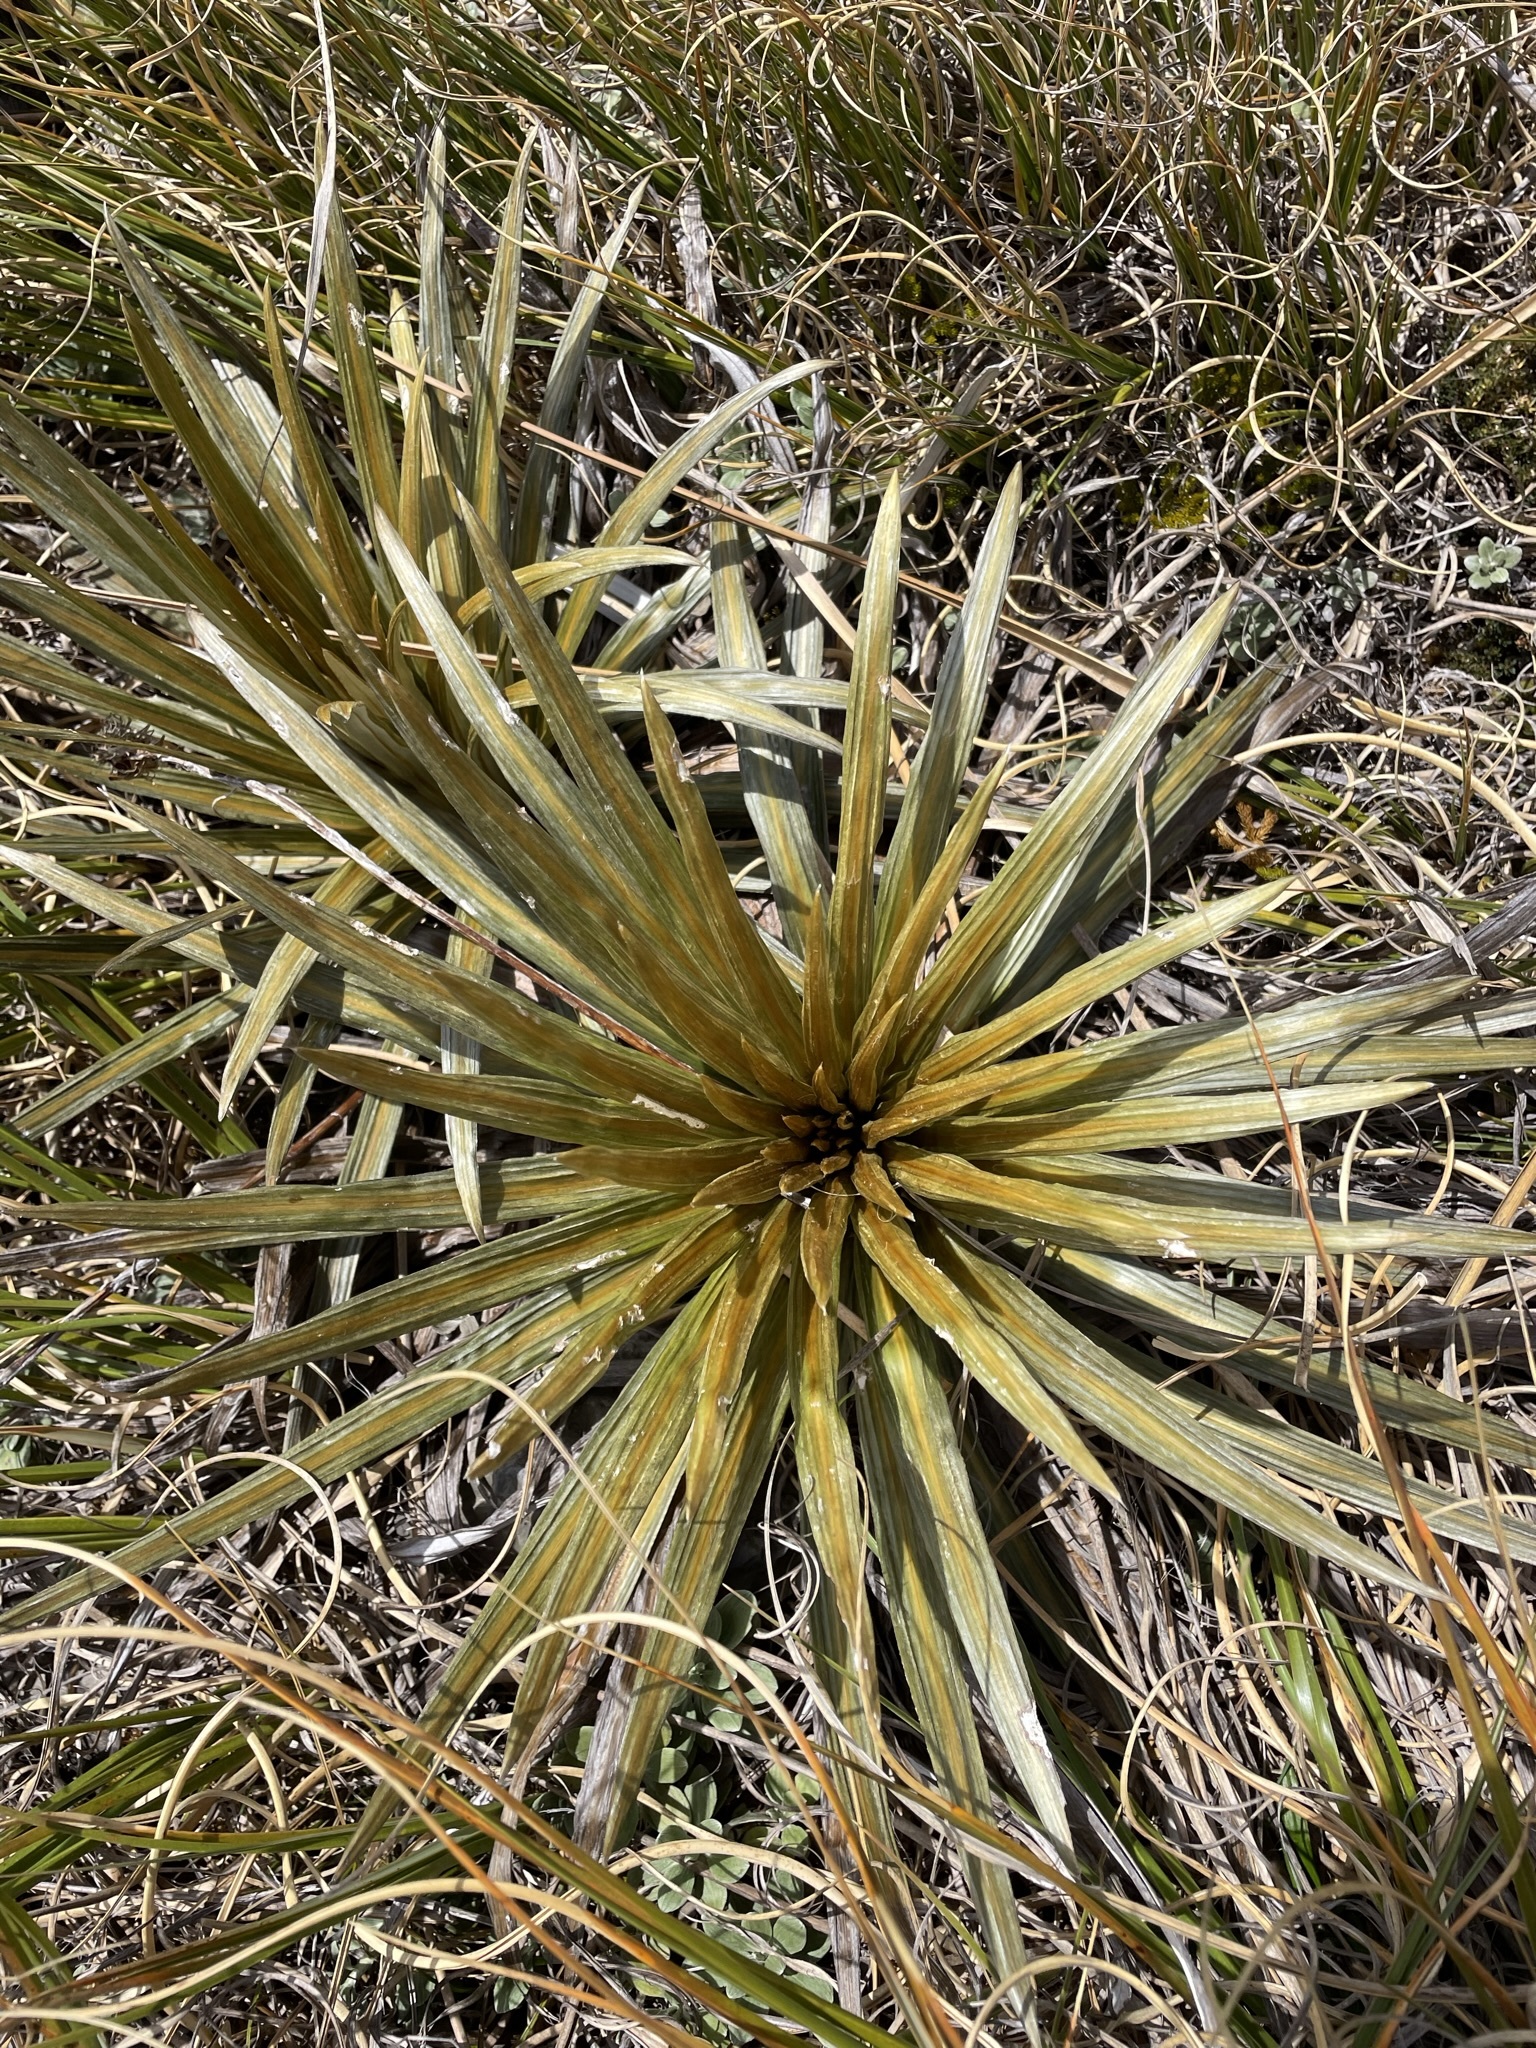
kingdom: Plantae
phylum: Tracheophyta
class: Magnoliopsida
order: Asterales
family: Asteraceae
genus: Celmisia
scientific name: Celmisia armstrongii
